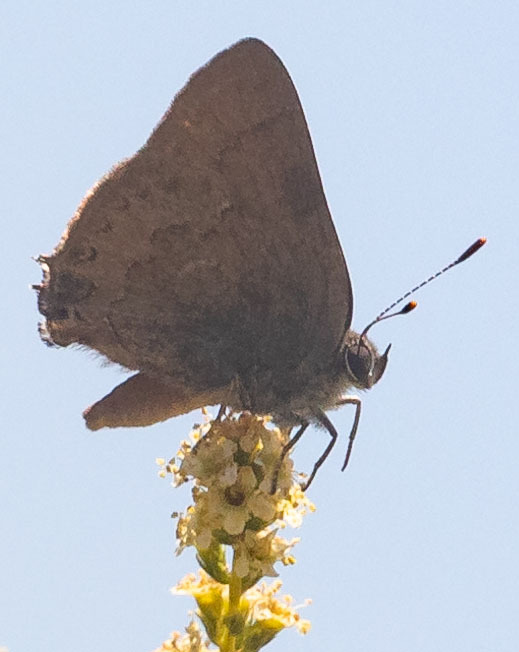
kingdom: Animalia
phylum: Arthropoda
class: Insecta
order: Lepidoptera
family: Lycaenidae
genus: Strymon
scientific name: Strymon saepium
